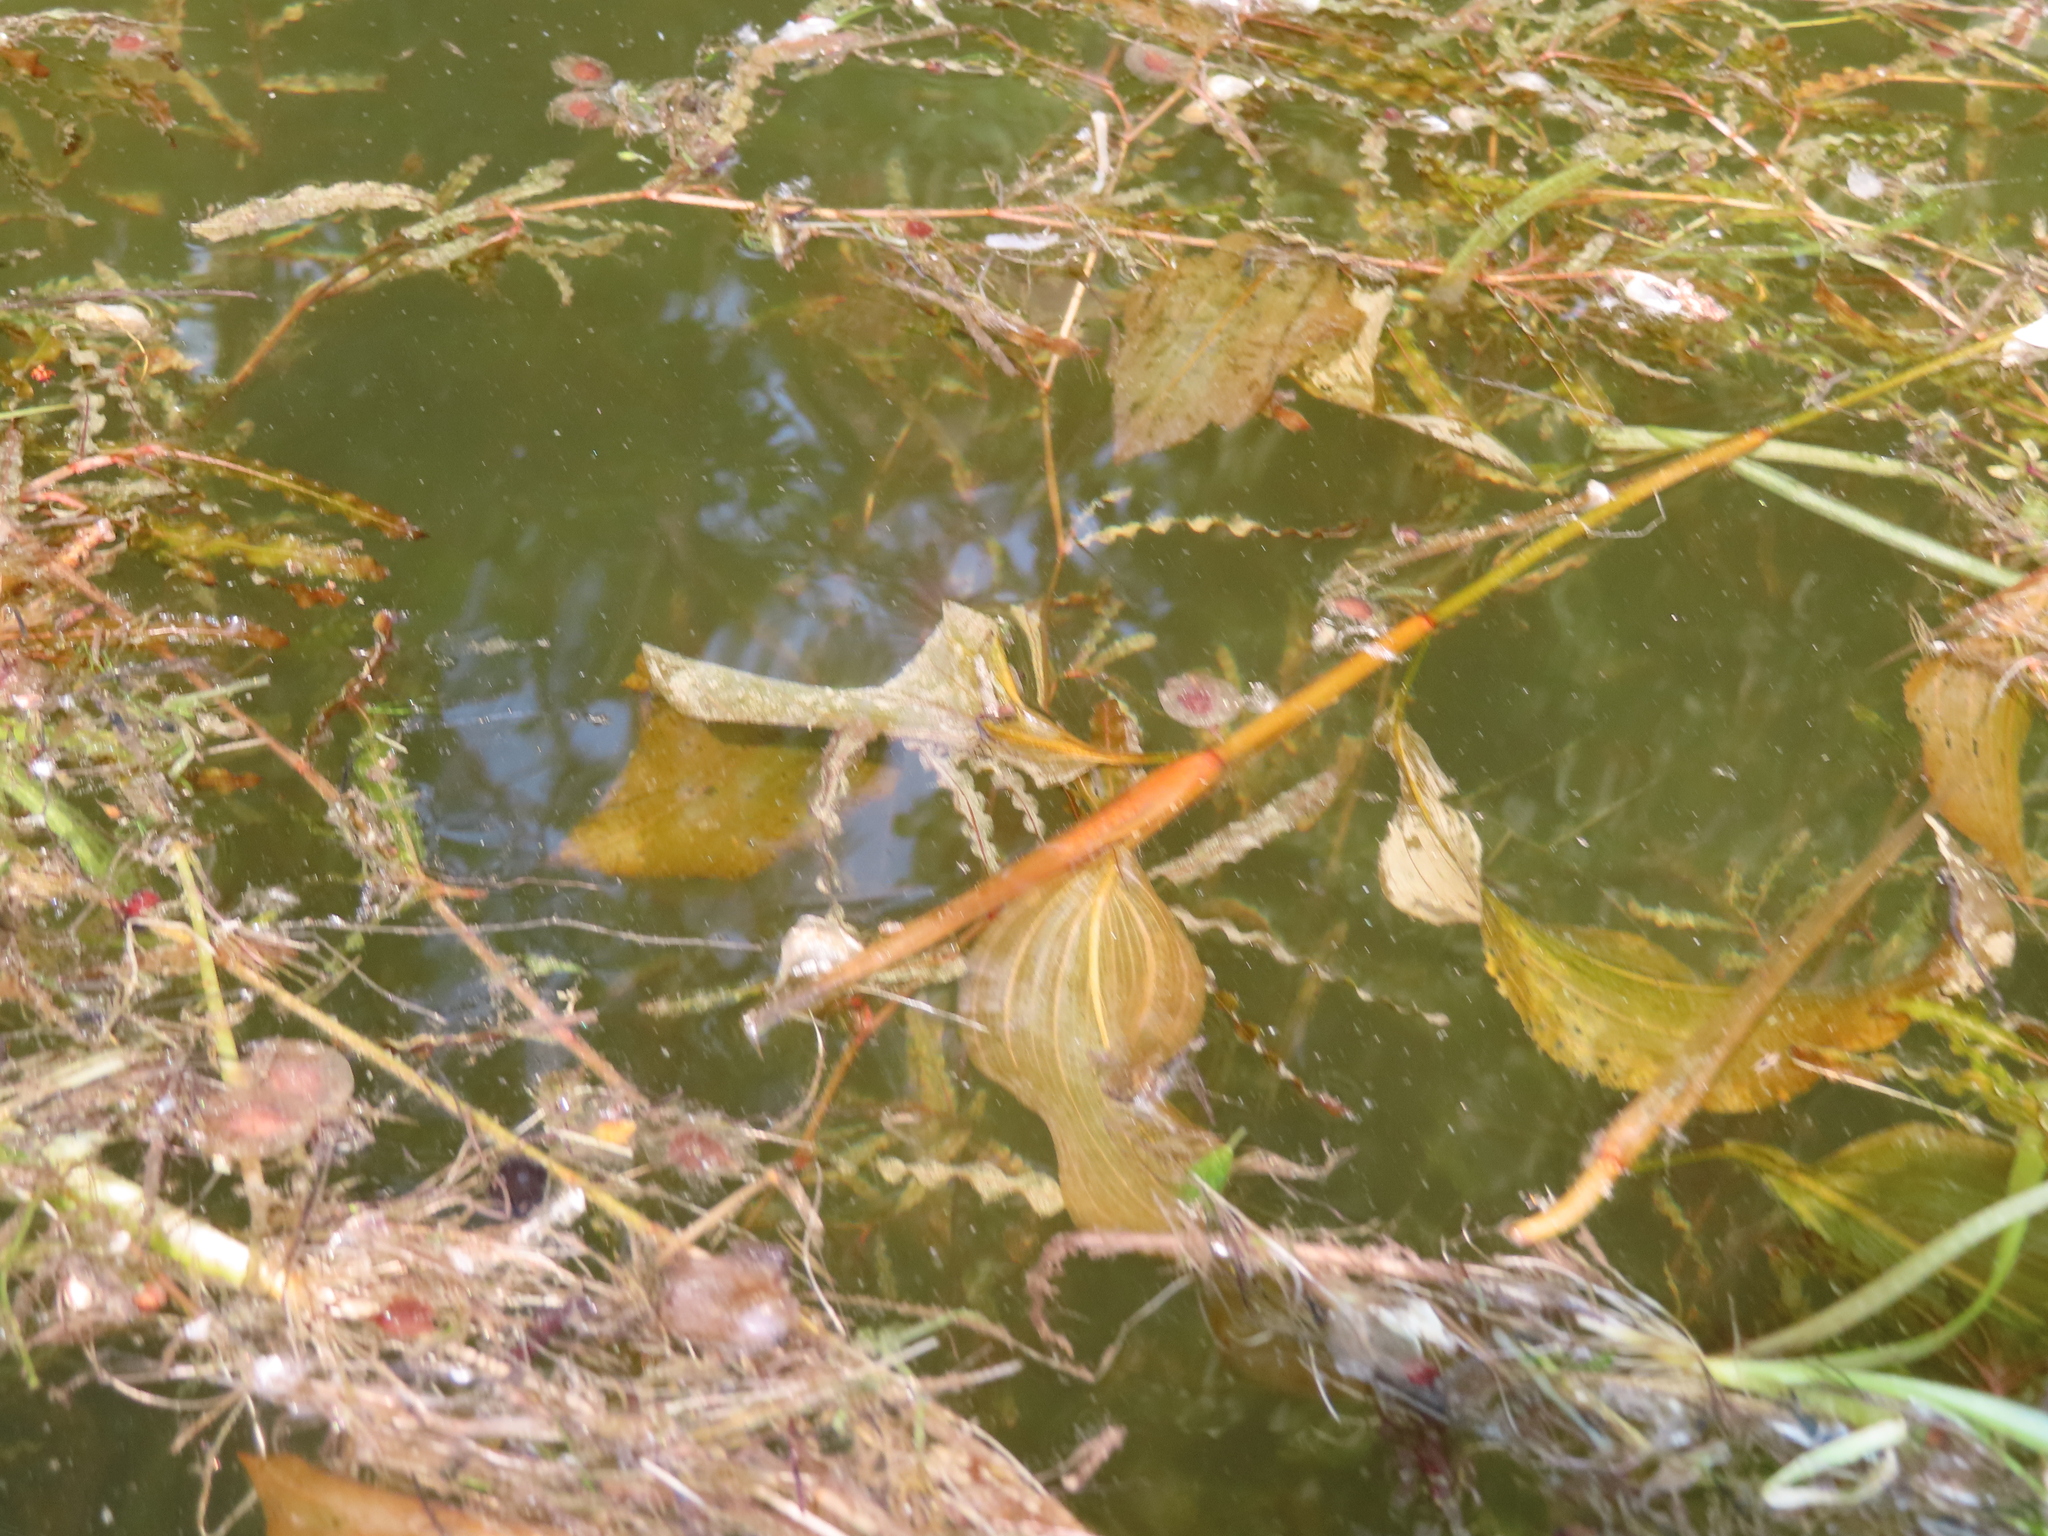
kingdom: Plantae
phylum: Tracheophyta
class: Liliopsida
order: Alismatales
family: Potamogetonaceae
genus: Potamogeton
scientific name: Potamogeton amplifolius
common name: Broad-leaved pondweed
